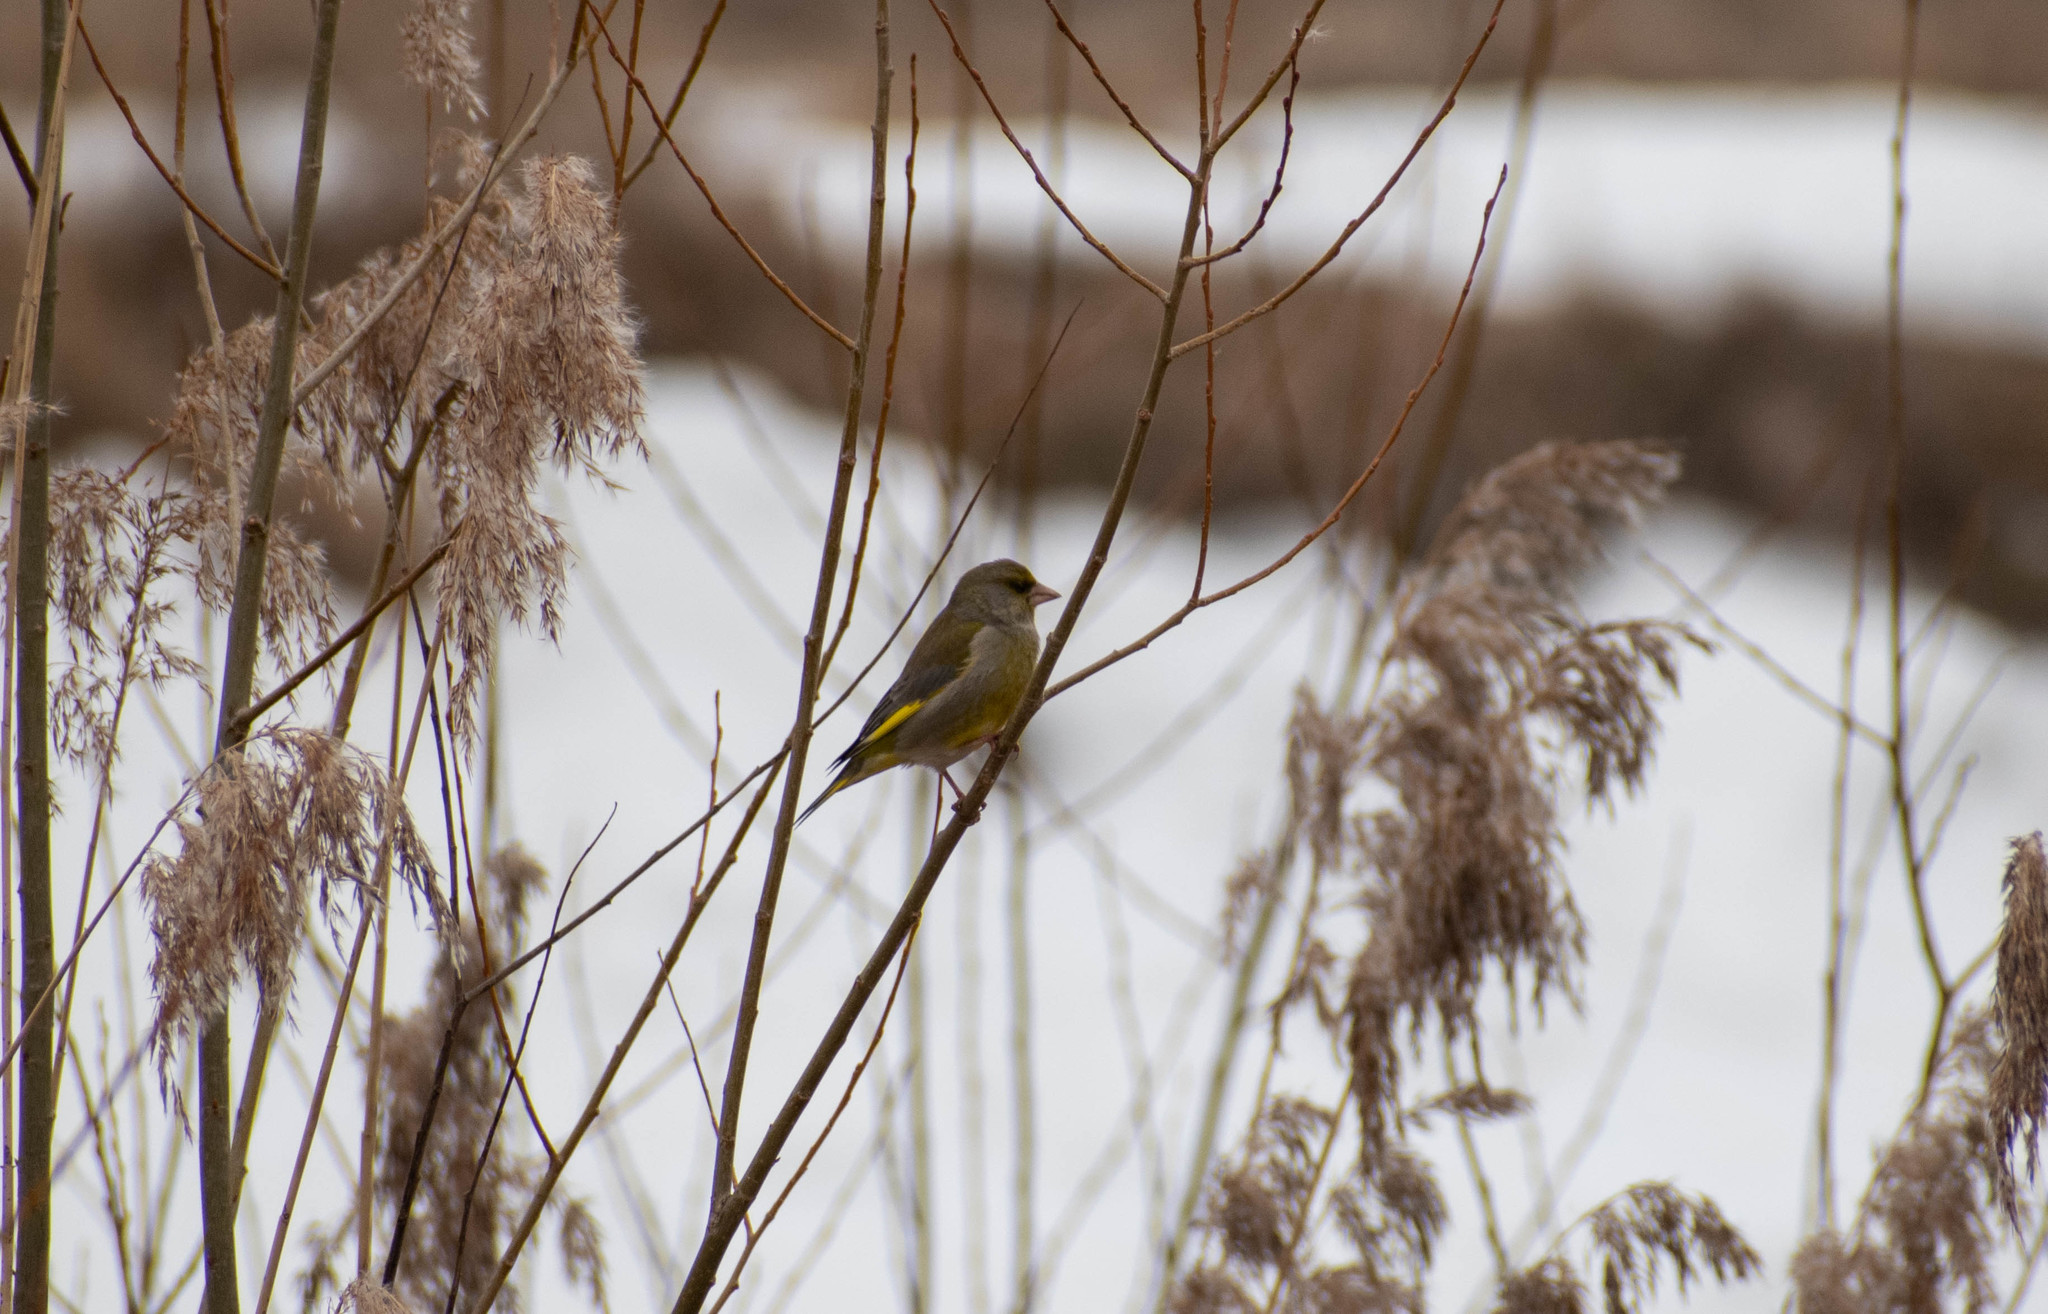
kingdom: Plantae
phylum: Tracheophyta
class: Liliopsida
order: Poales
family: Poaceae
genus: Chloris
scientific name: Chloris chloris
